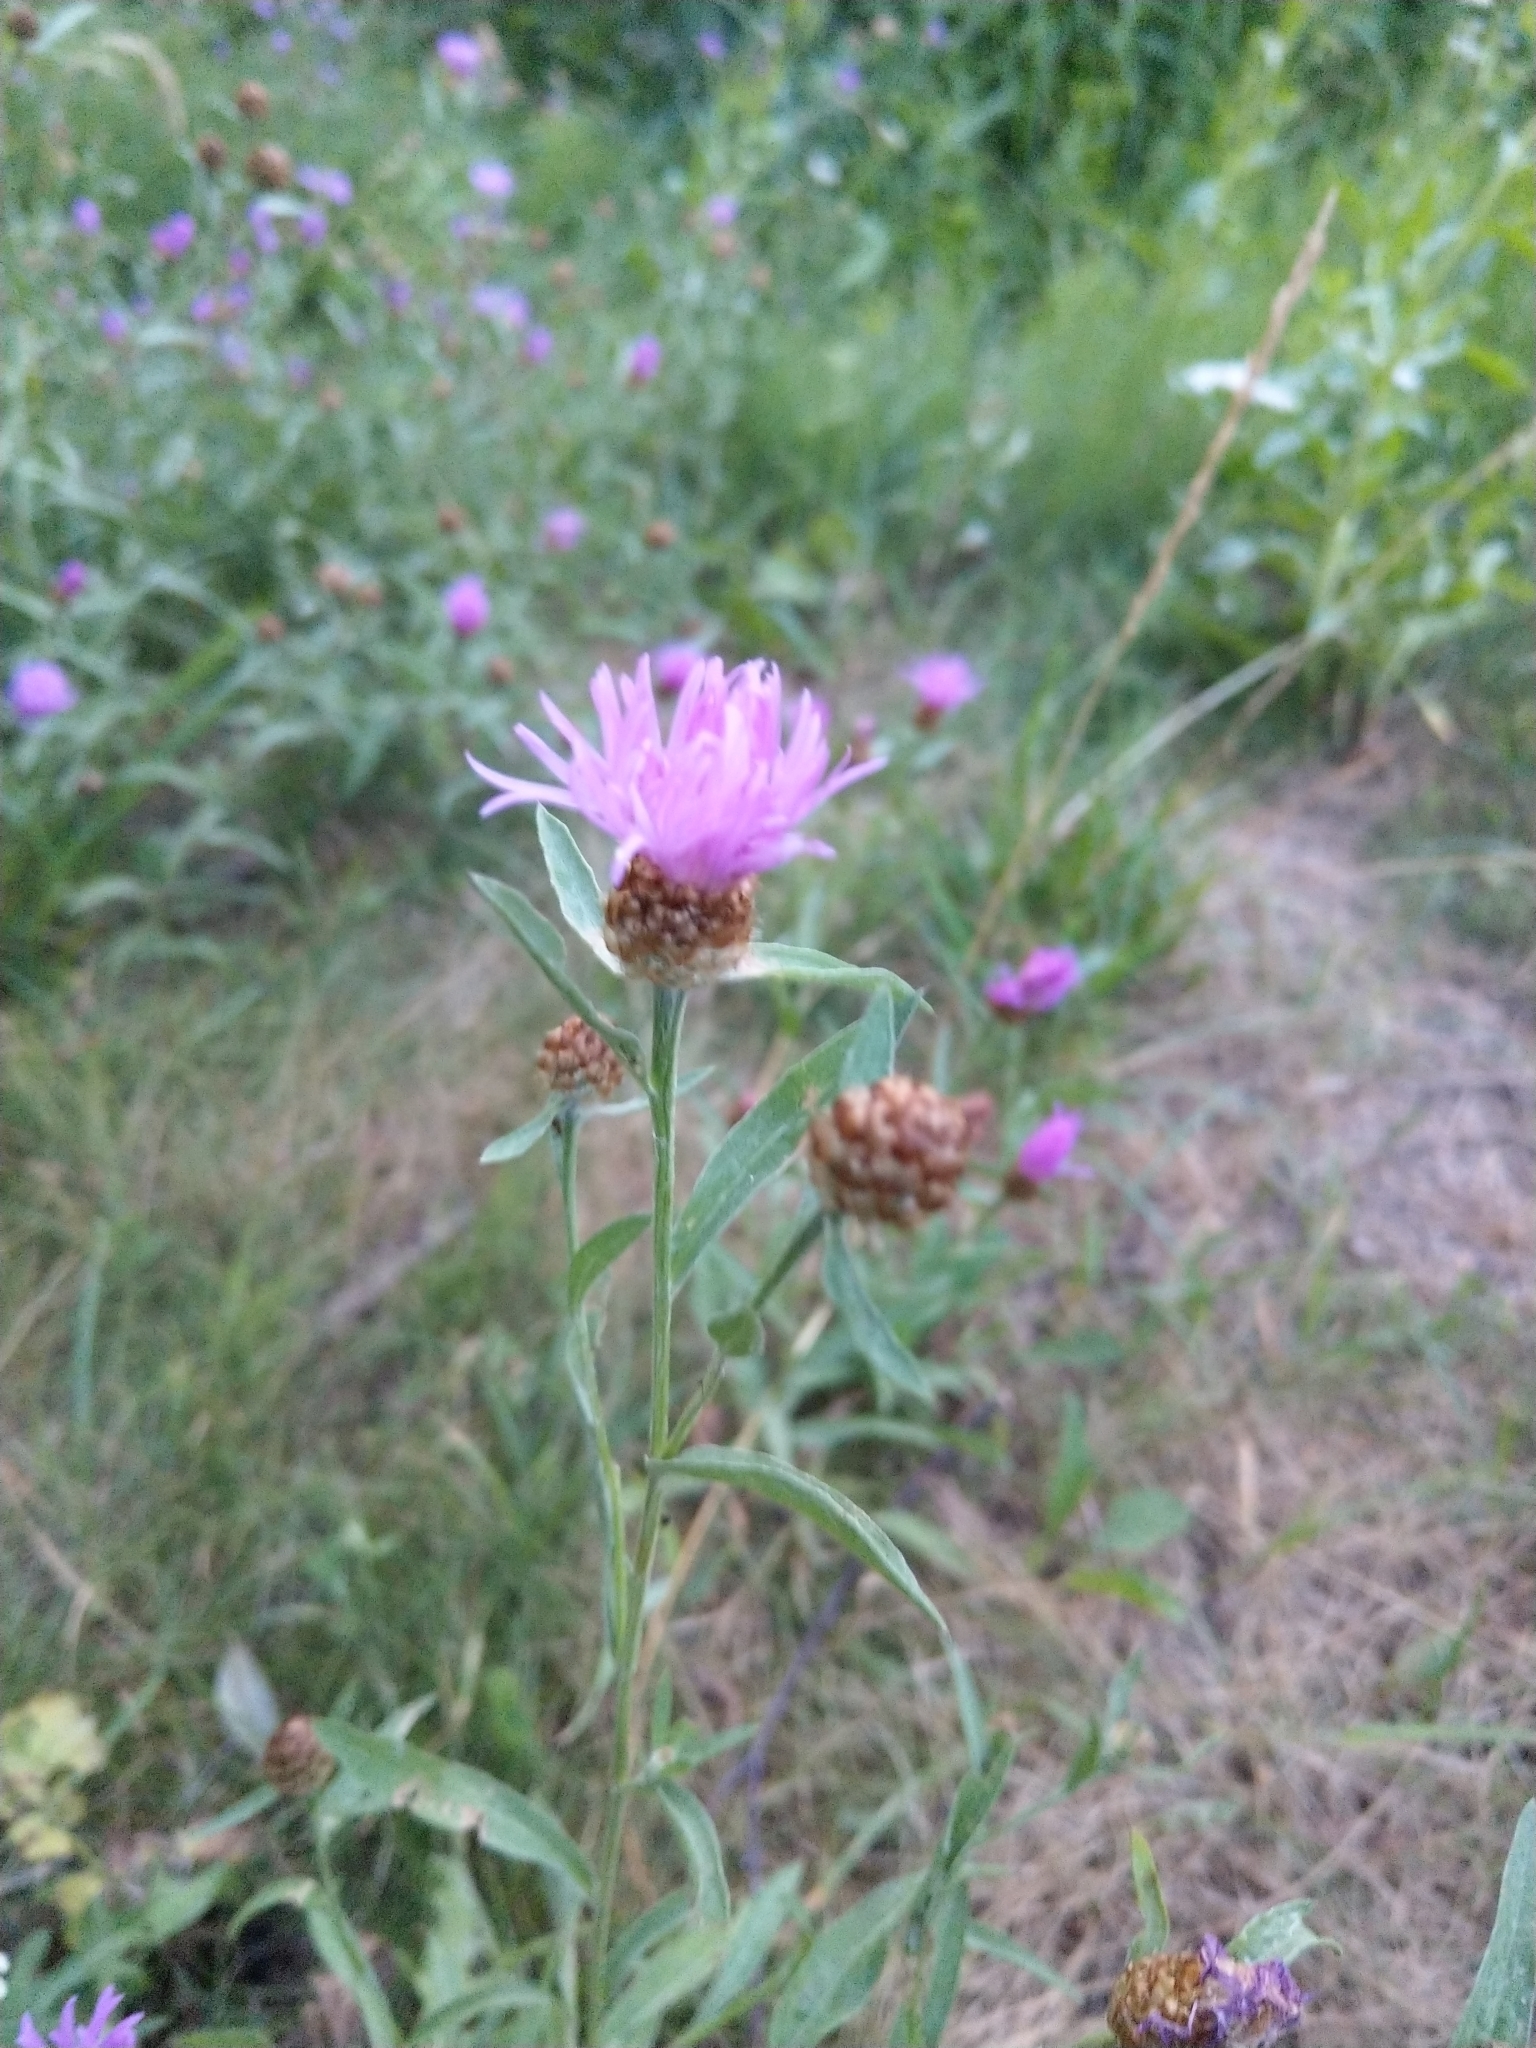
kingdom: Plantae
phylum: Tracheophyta
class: Magnoliopsida
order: Asterales
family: Asteraceae
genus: Centaurea
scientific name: Centaurea jacea
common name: Brown knapweed
